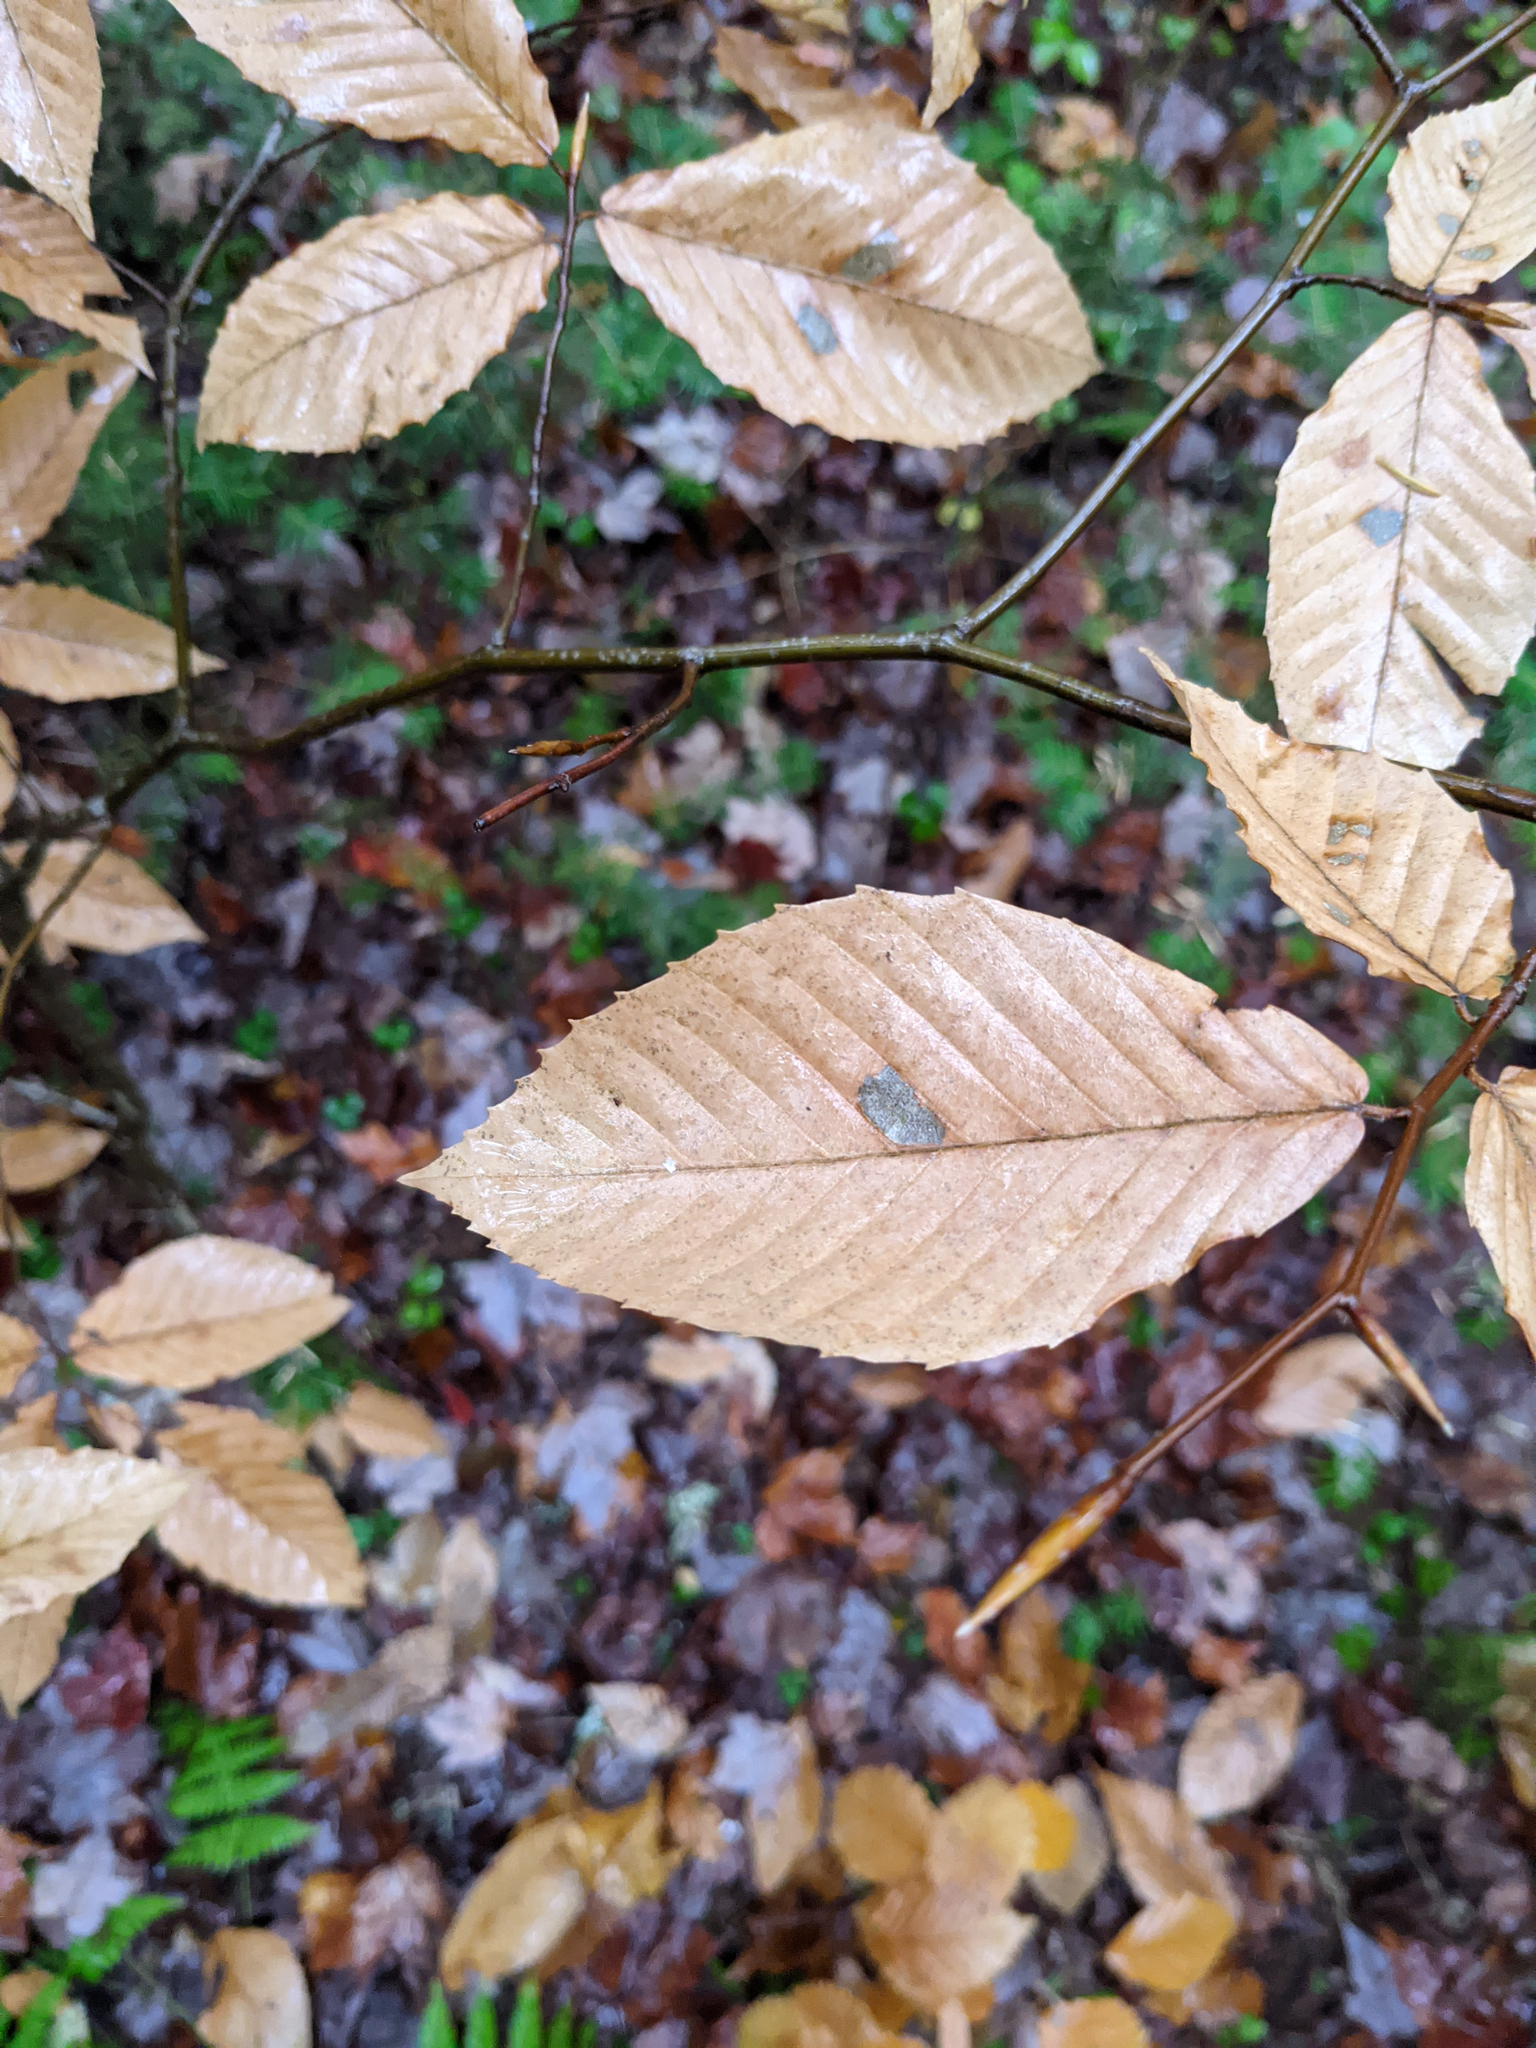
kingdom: Plantae
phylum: Tracheophyta
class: Magnoliopsida
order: Fagales
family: Fagaceae
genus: Fagus
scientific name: Fagus grandifolia
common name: American beech
